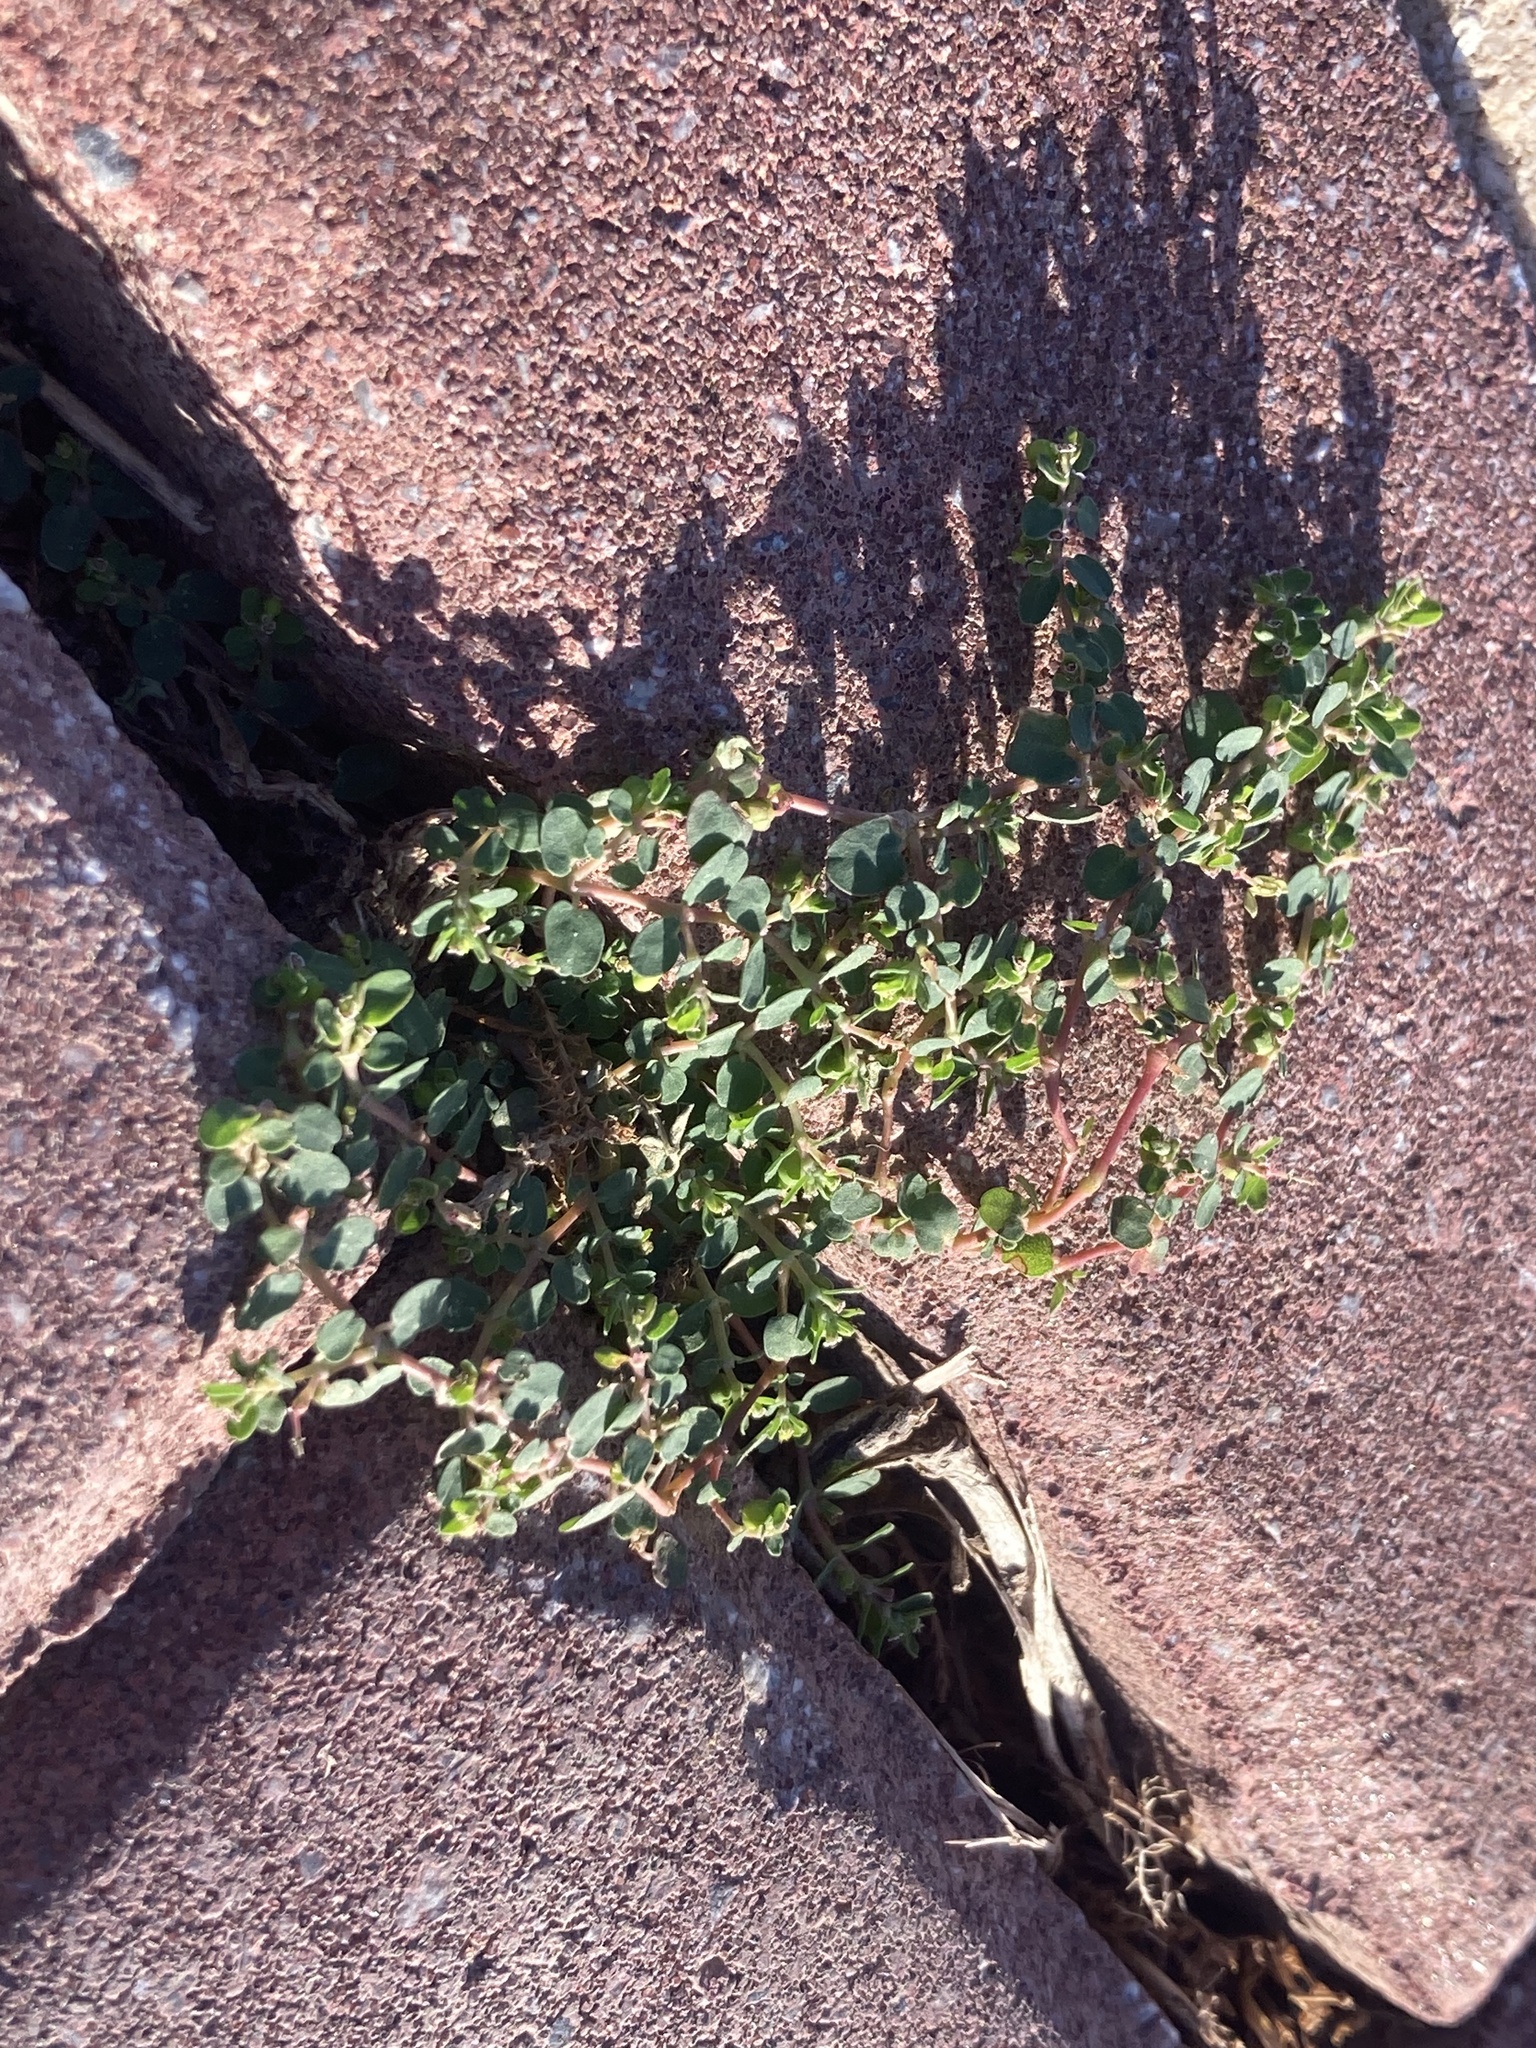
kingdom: Plantae
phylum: Tracheophyta
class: Magnoliopsida
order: Malpighiales
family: Euphorbiaceae
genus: Euphorbia
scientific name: Euphorbia serpens
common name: Matted sandmat
